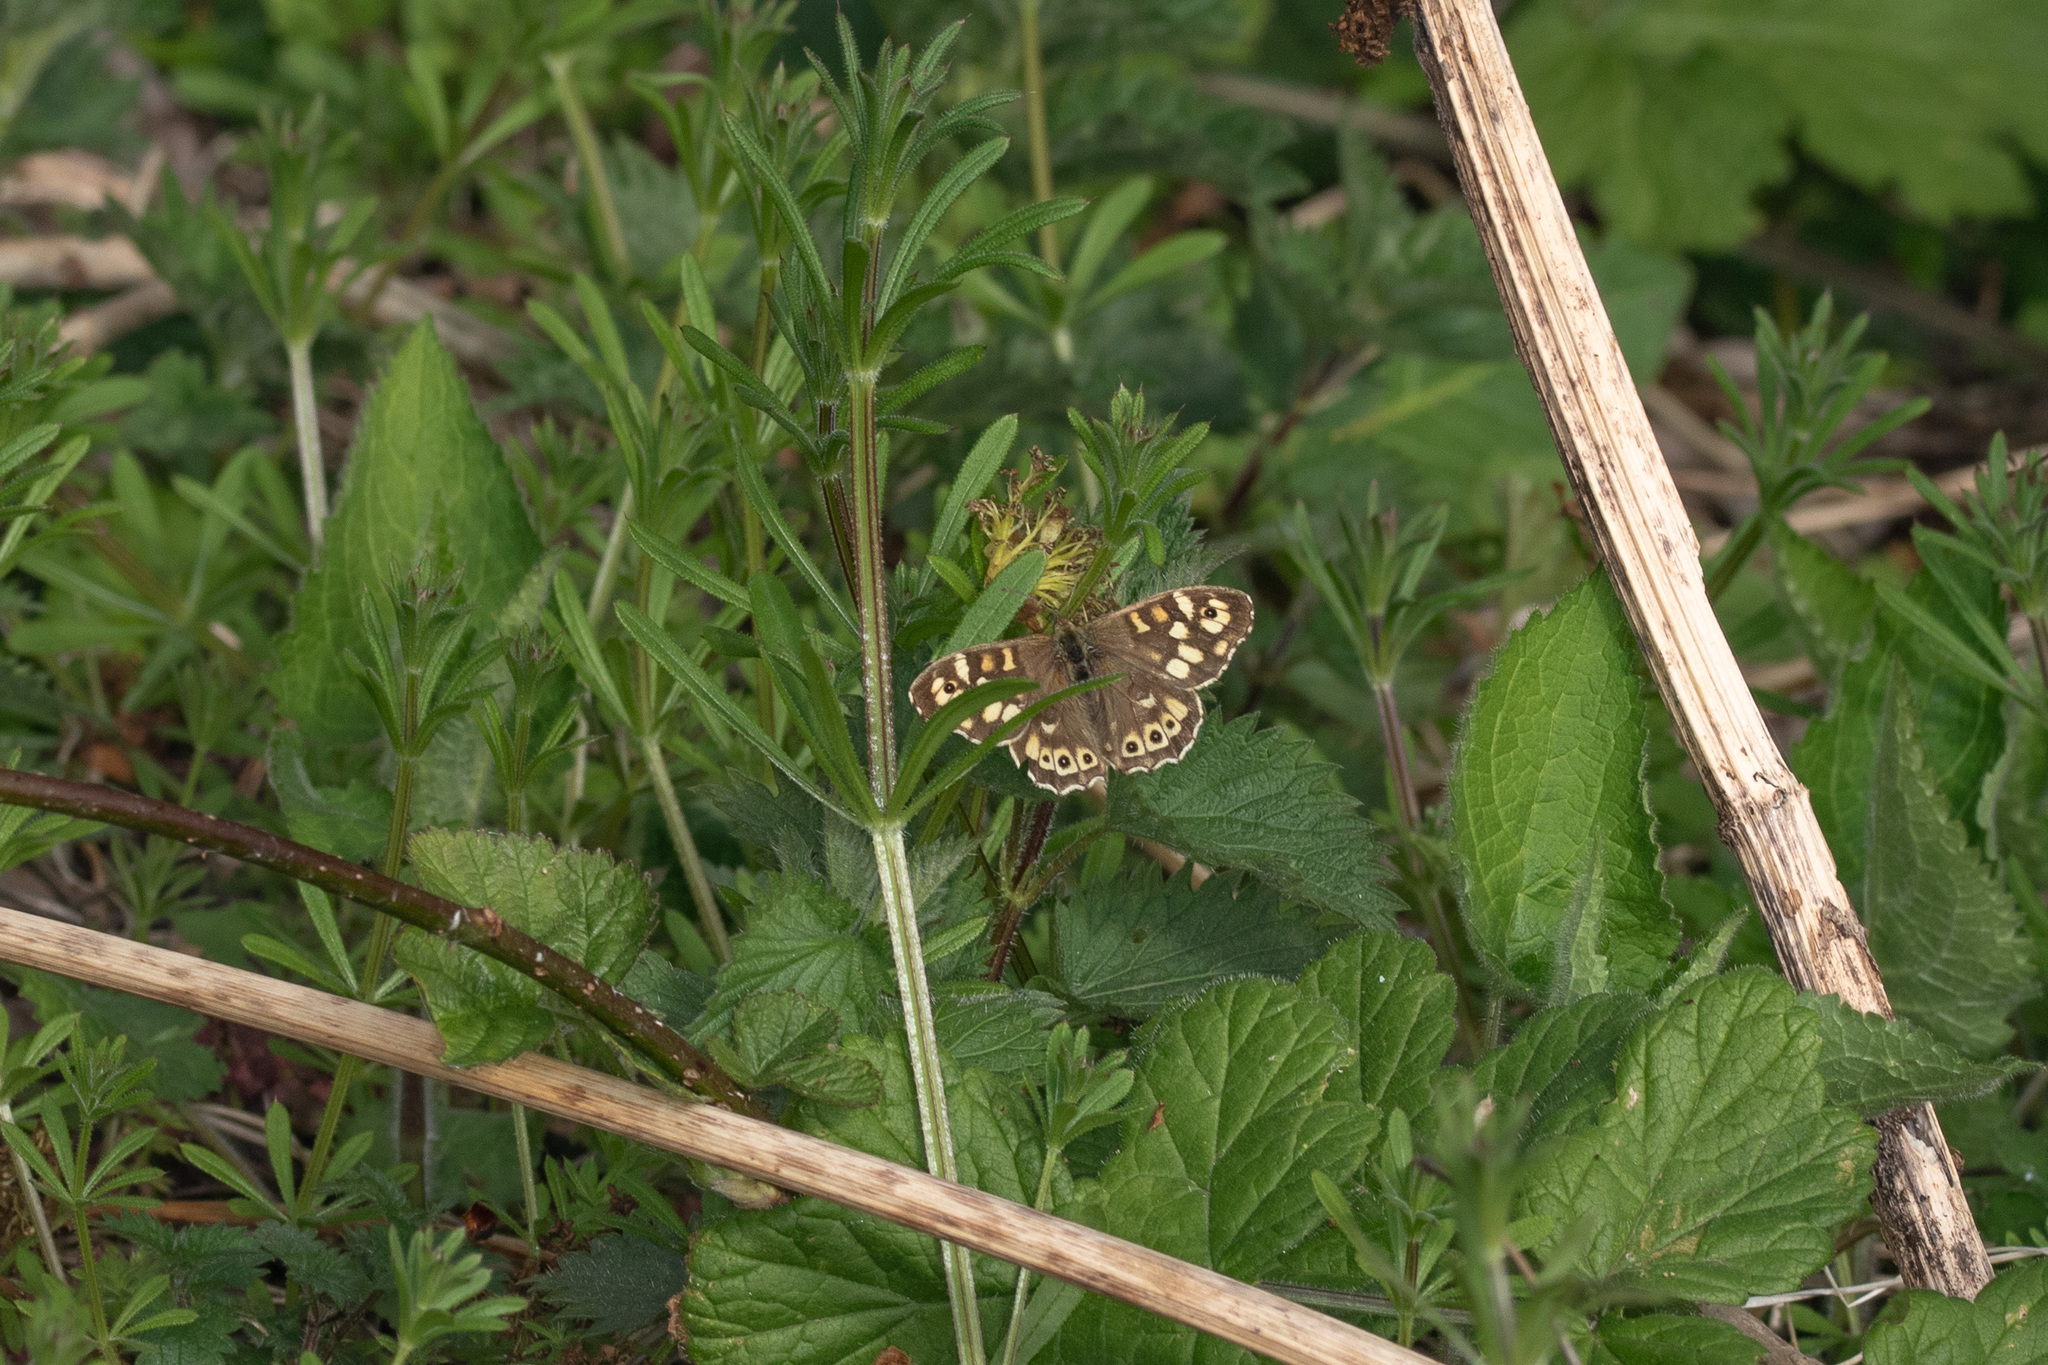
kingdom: Animalia
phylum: Arthropoda
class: Insecta
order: Lepidoptera
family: Nymphalidae
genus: Pararge
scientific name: Pararge aegeria
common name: Speckled wood
